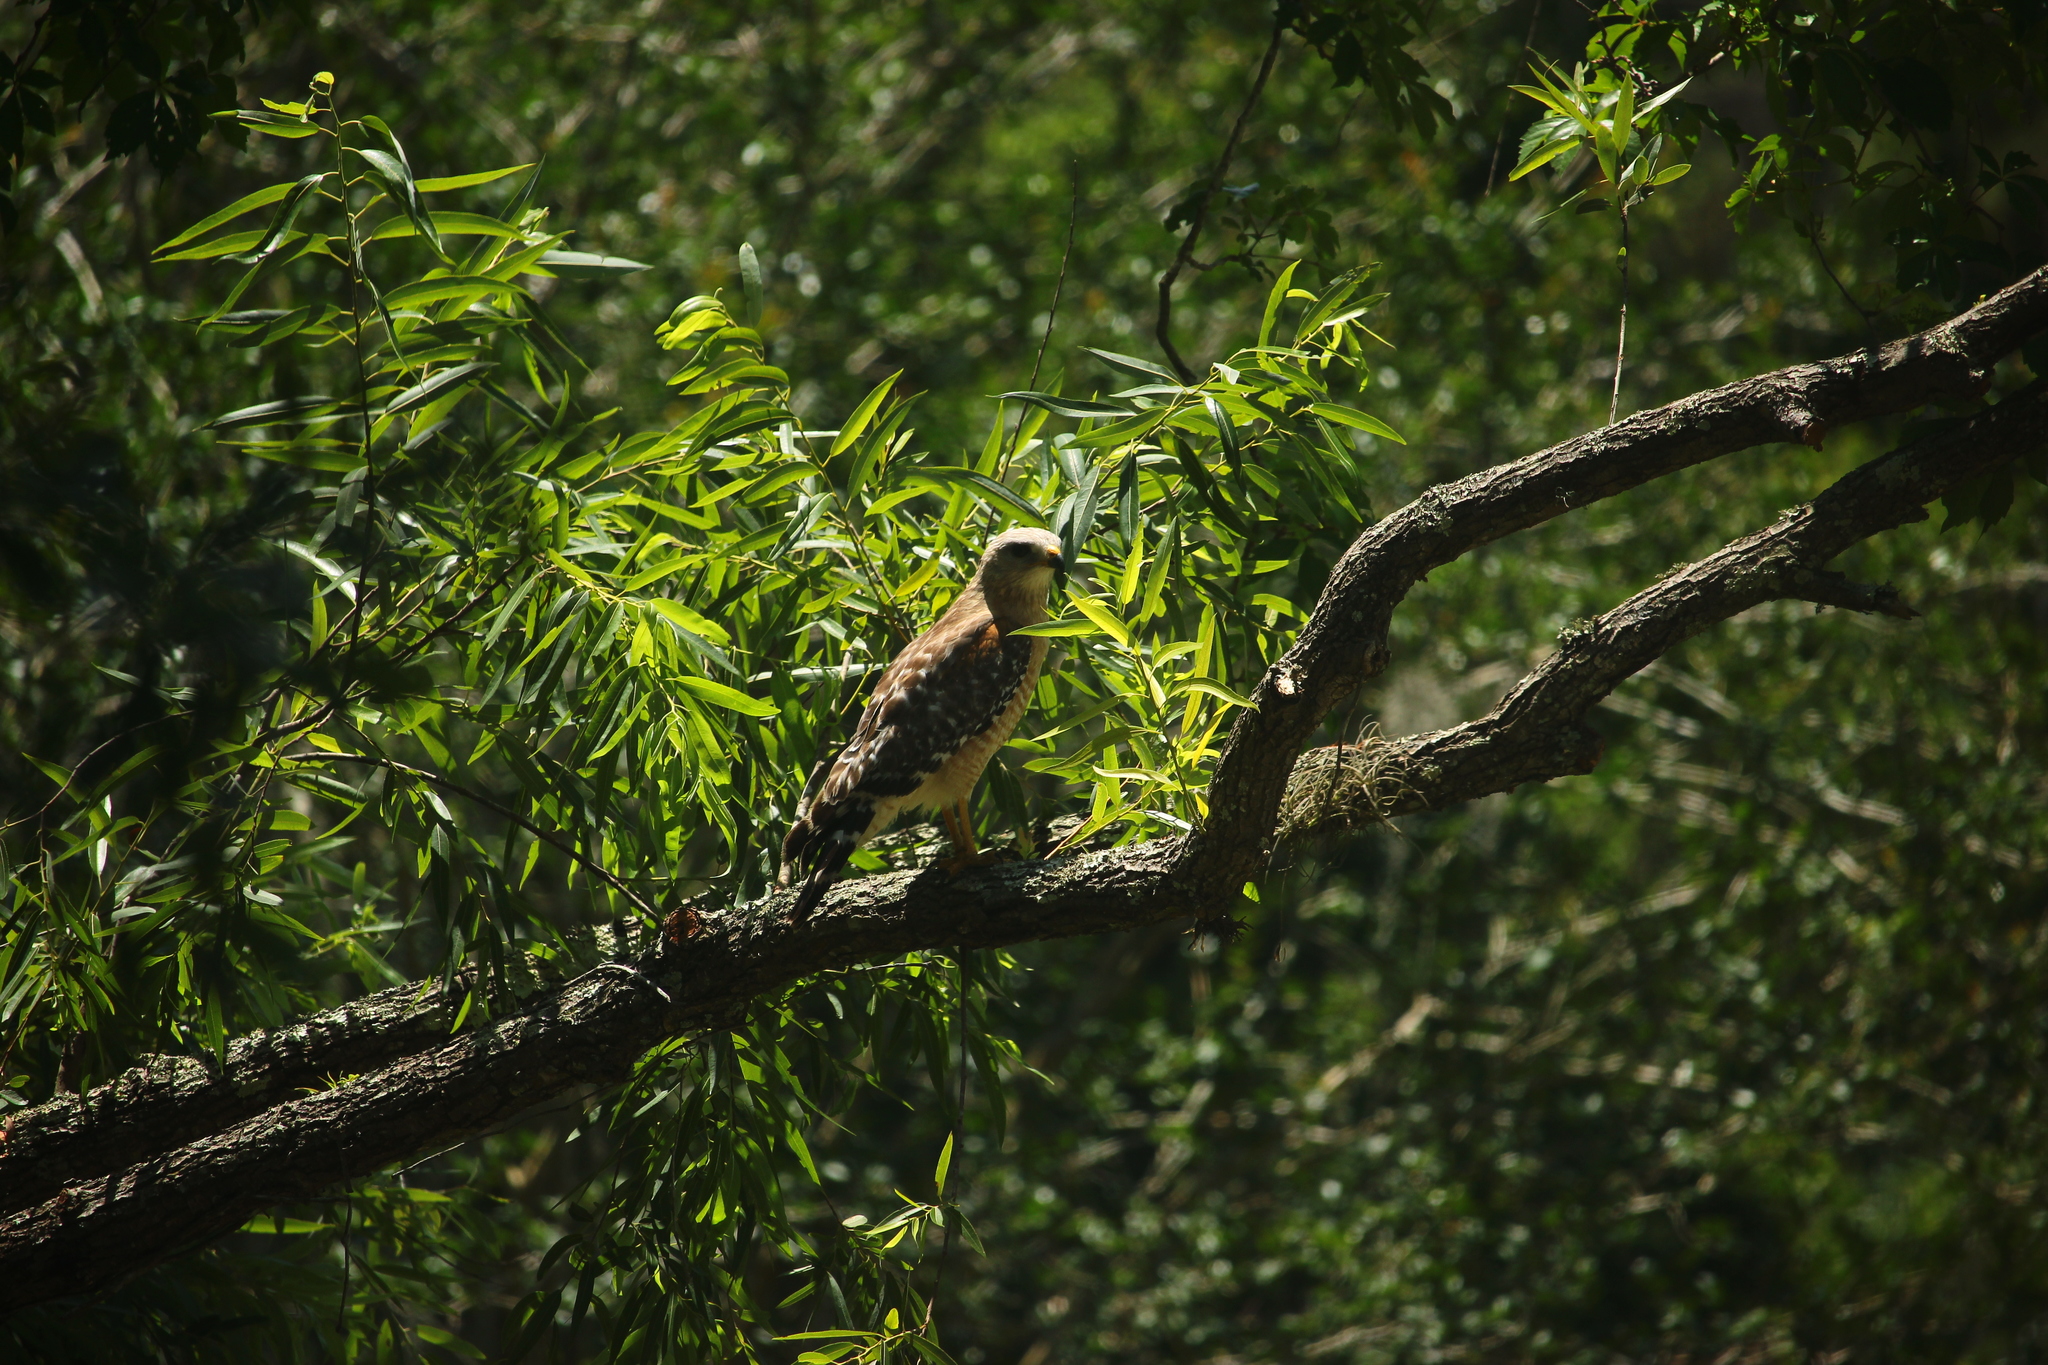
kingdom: Animalia
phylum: Chordata
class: Aves
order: Accipitriformes
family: Accipitridae
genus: Buteo
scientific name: Buteo lineatus
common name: Red-shouldered hawk
